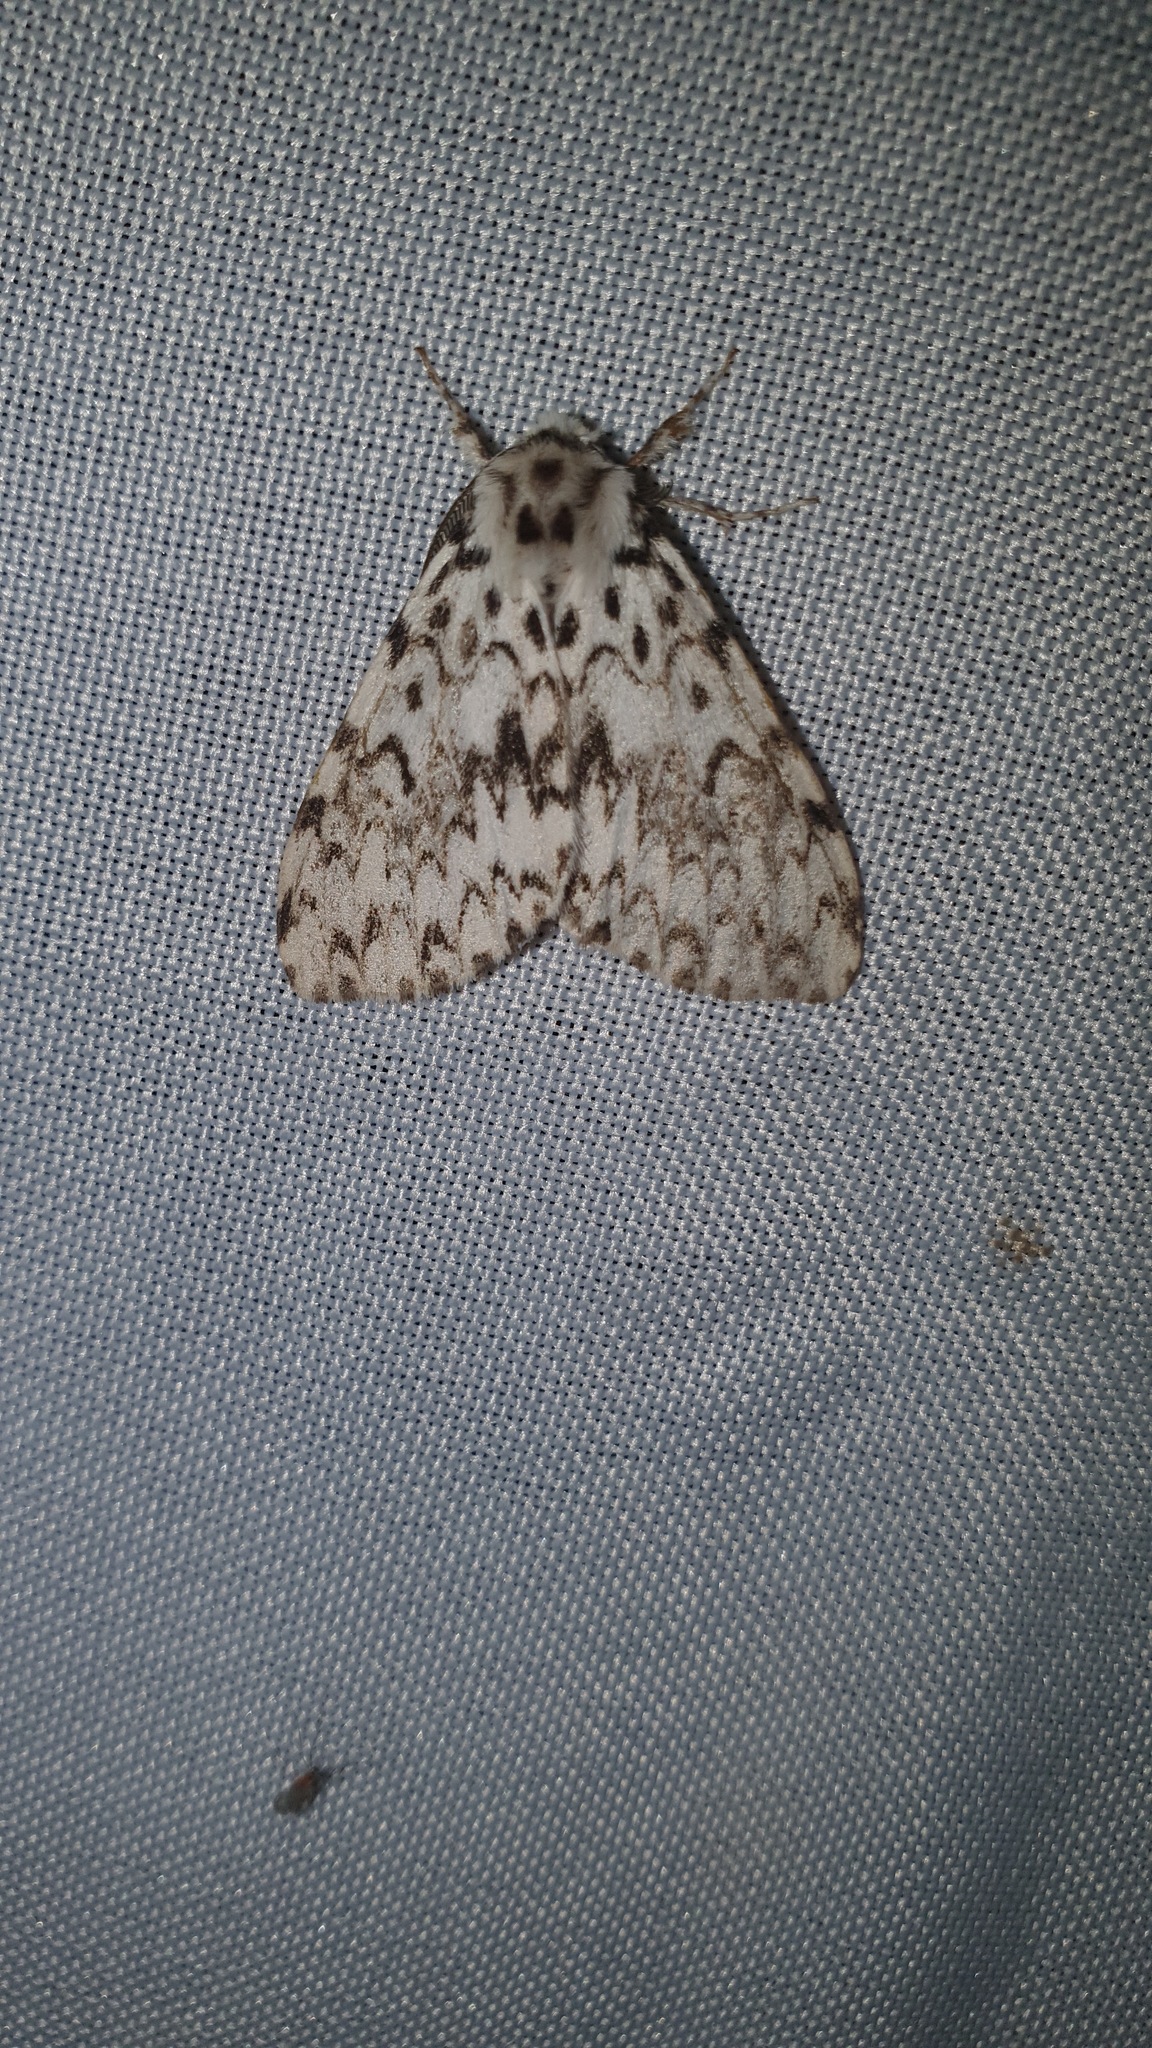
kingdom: Animalia
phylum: Arthropoda
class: Insecta
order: Lepidoptera
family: Erebidae
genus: Lymantria
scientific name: Lymantria monacha
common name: Black arches
